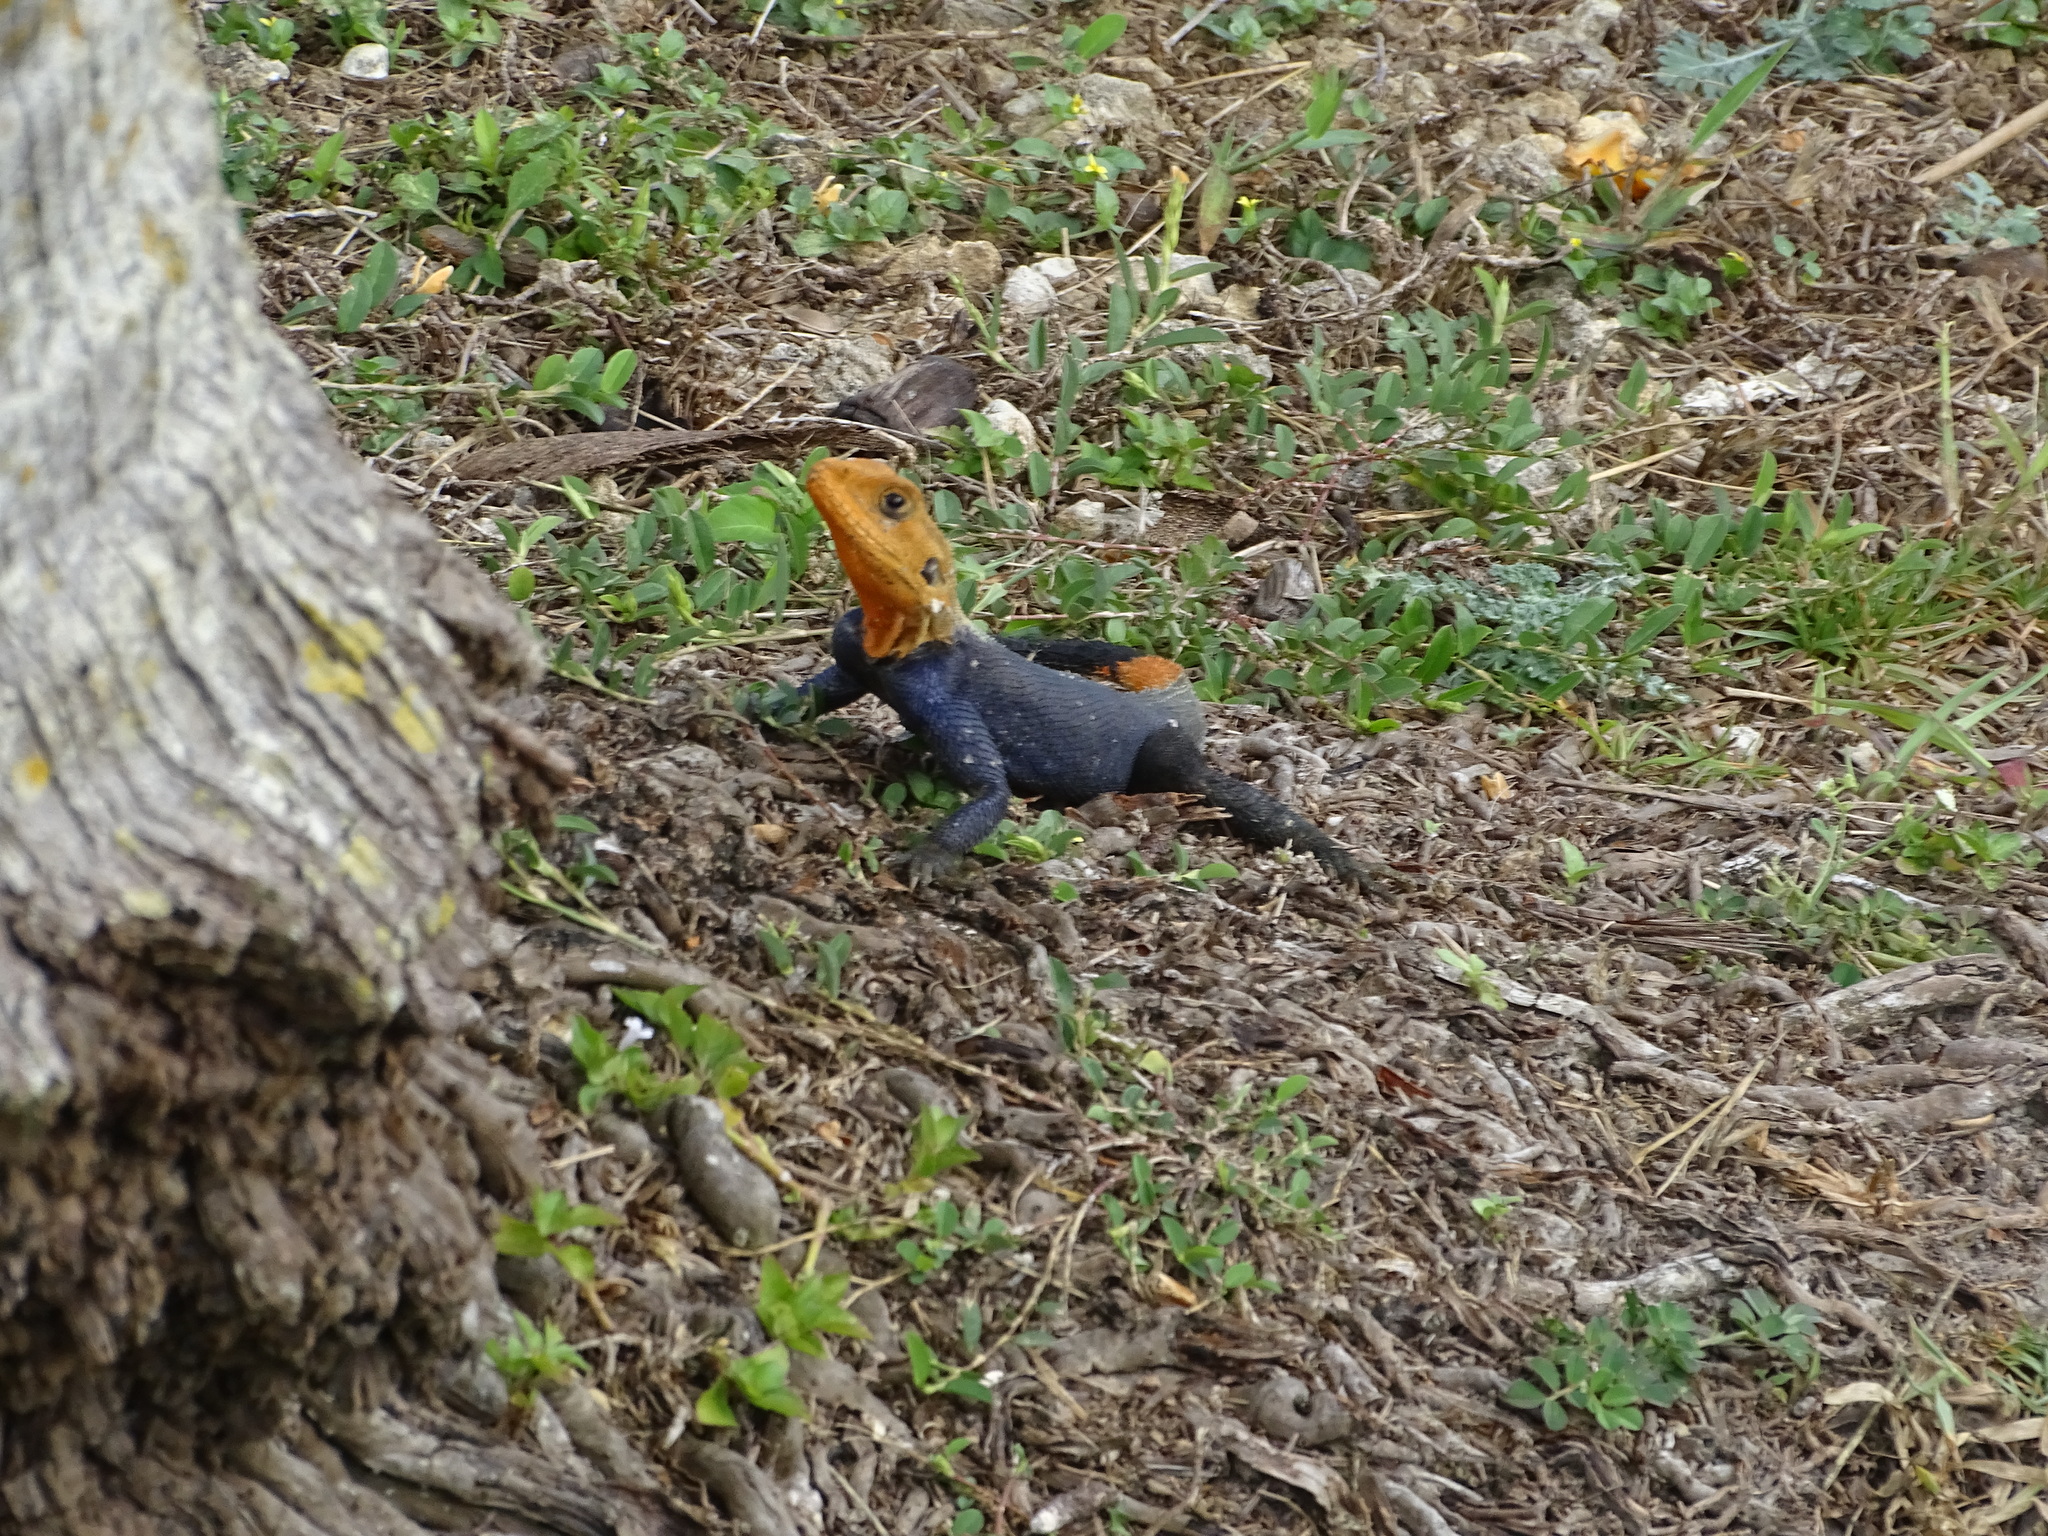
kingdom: Animalia
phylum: Chordata
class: Squamata
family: Agamidae
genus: Agama
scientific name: Agama picticauda
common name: Red-headed agama
